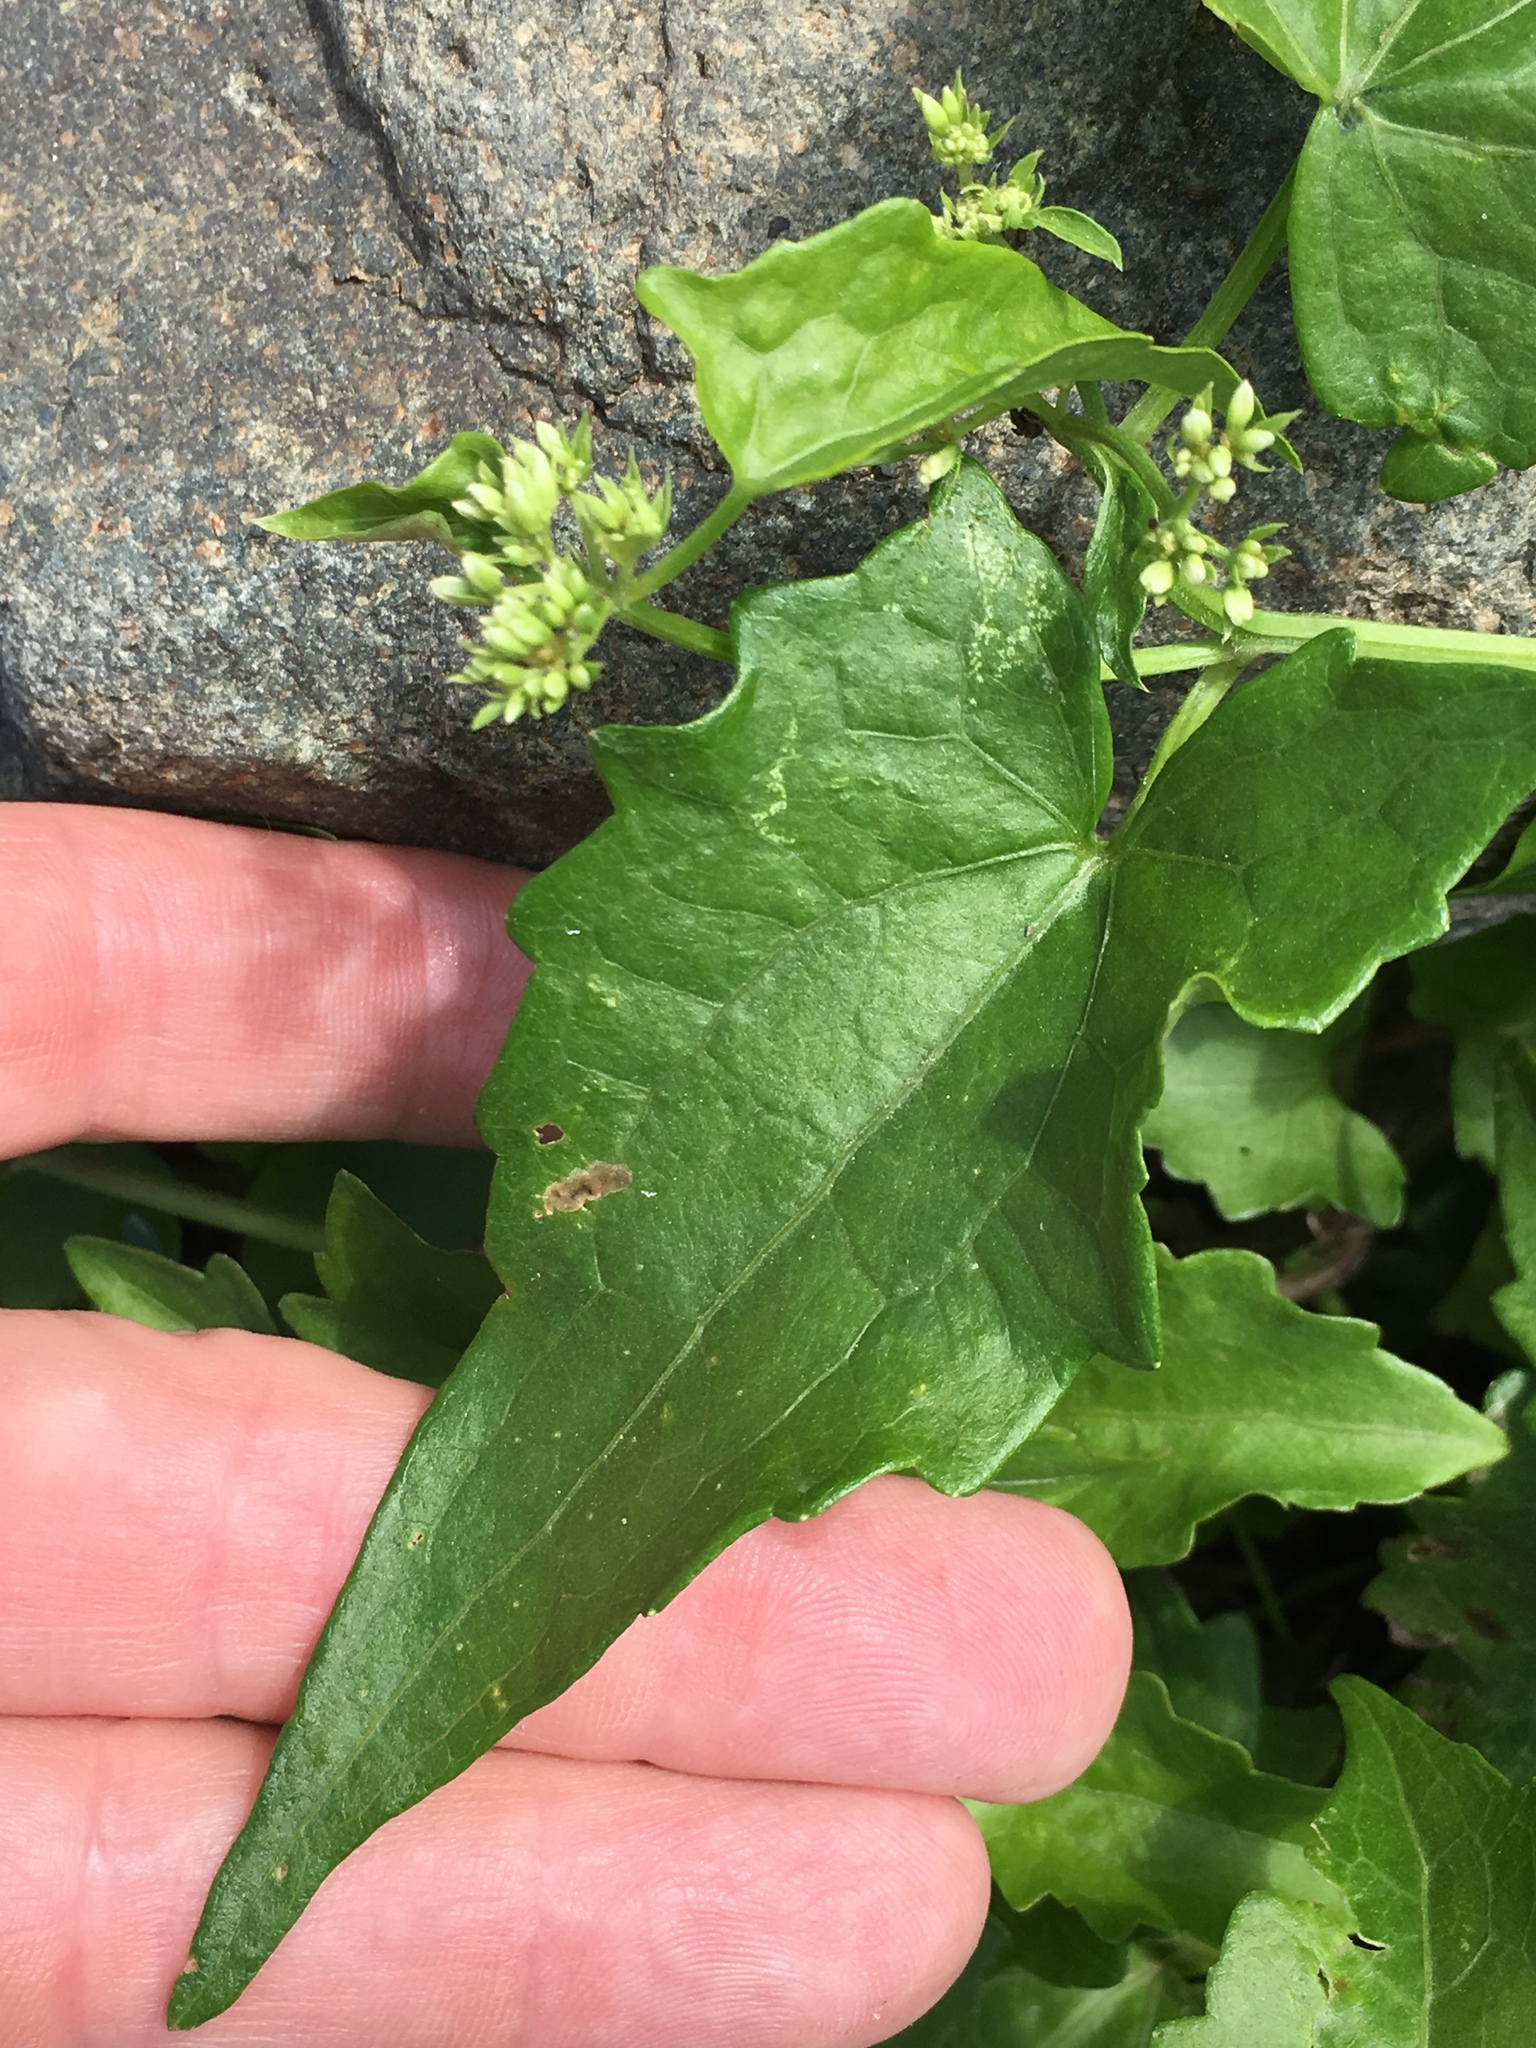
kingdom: Plantae
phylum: Tracheophyta
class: Magnoliopsida
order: Asterales
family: Asteraceae
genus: Mikania
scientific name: Mikania micrantha
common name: Mile-a-minute
